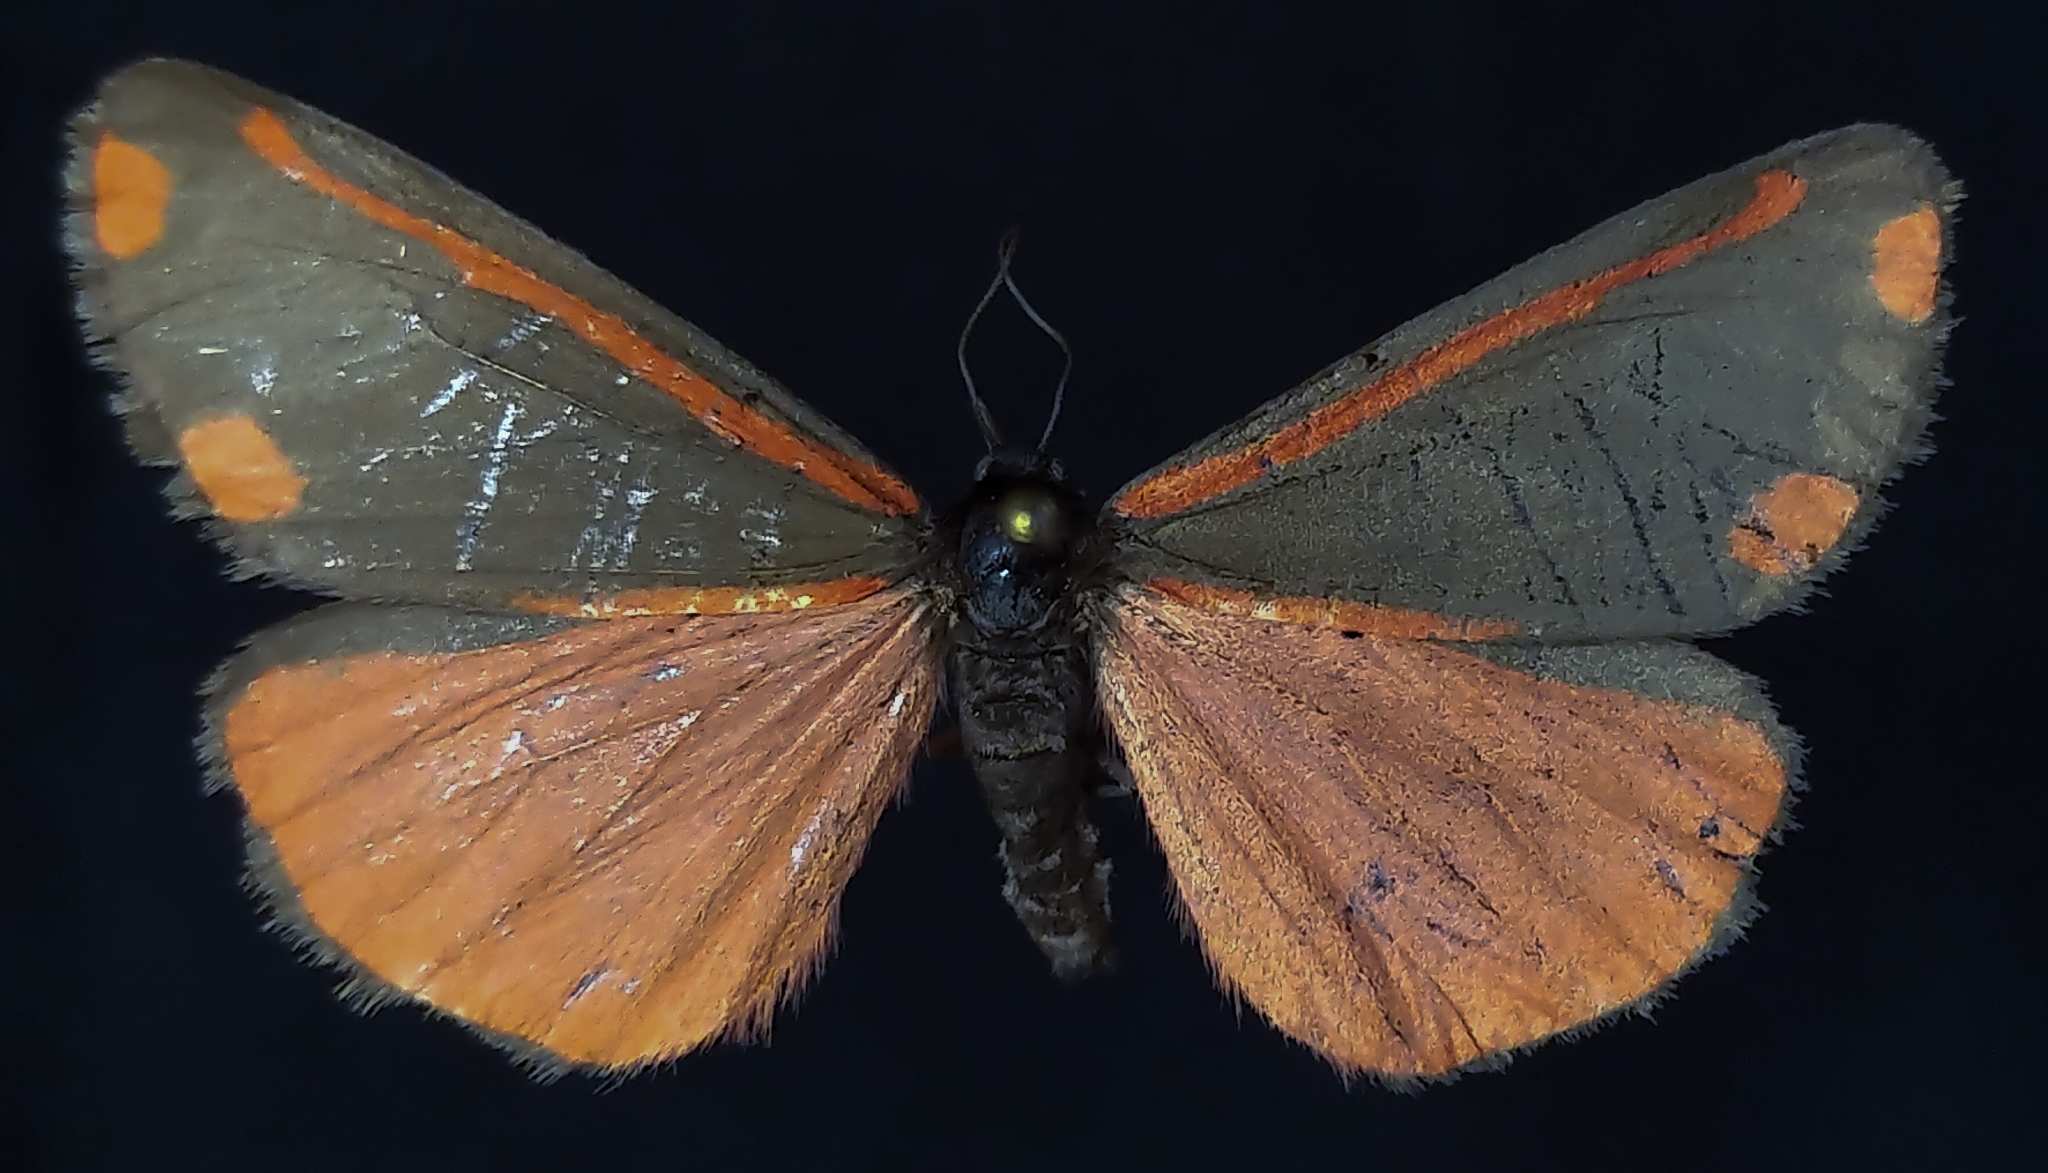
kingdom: Animalia
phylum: Arthropoda
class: Insecta
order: Lepidoptera
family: Erebidae
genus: Tyria
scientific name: Tyria jacobaeae
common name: Cinnabar
